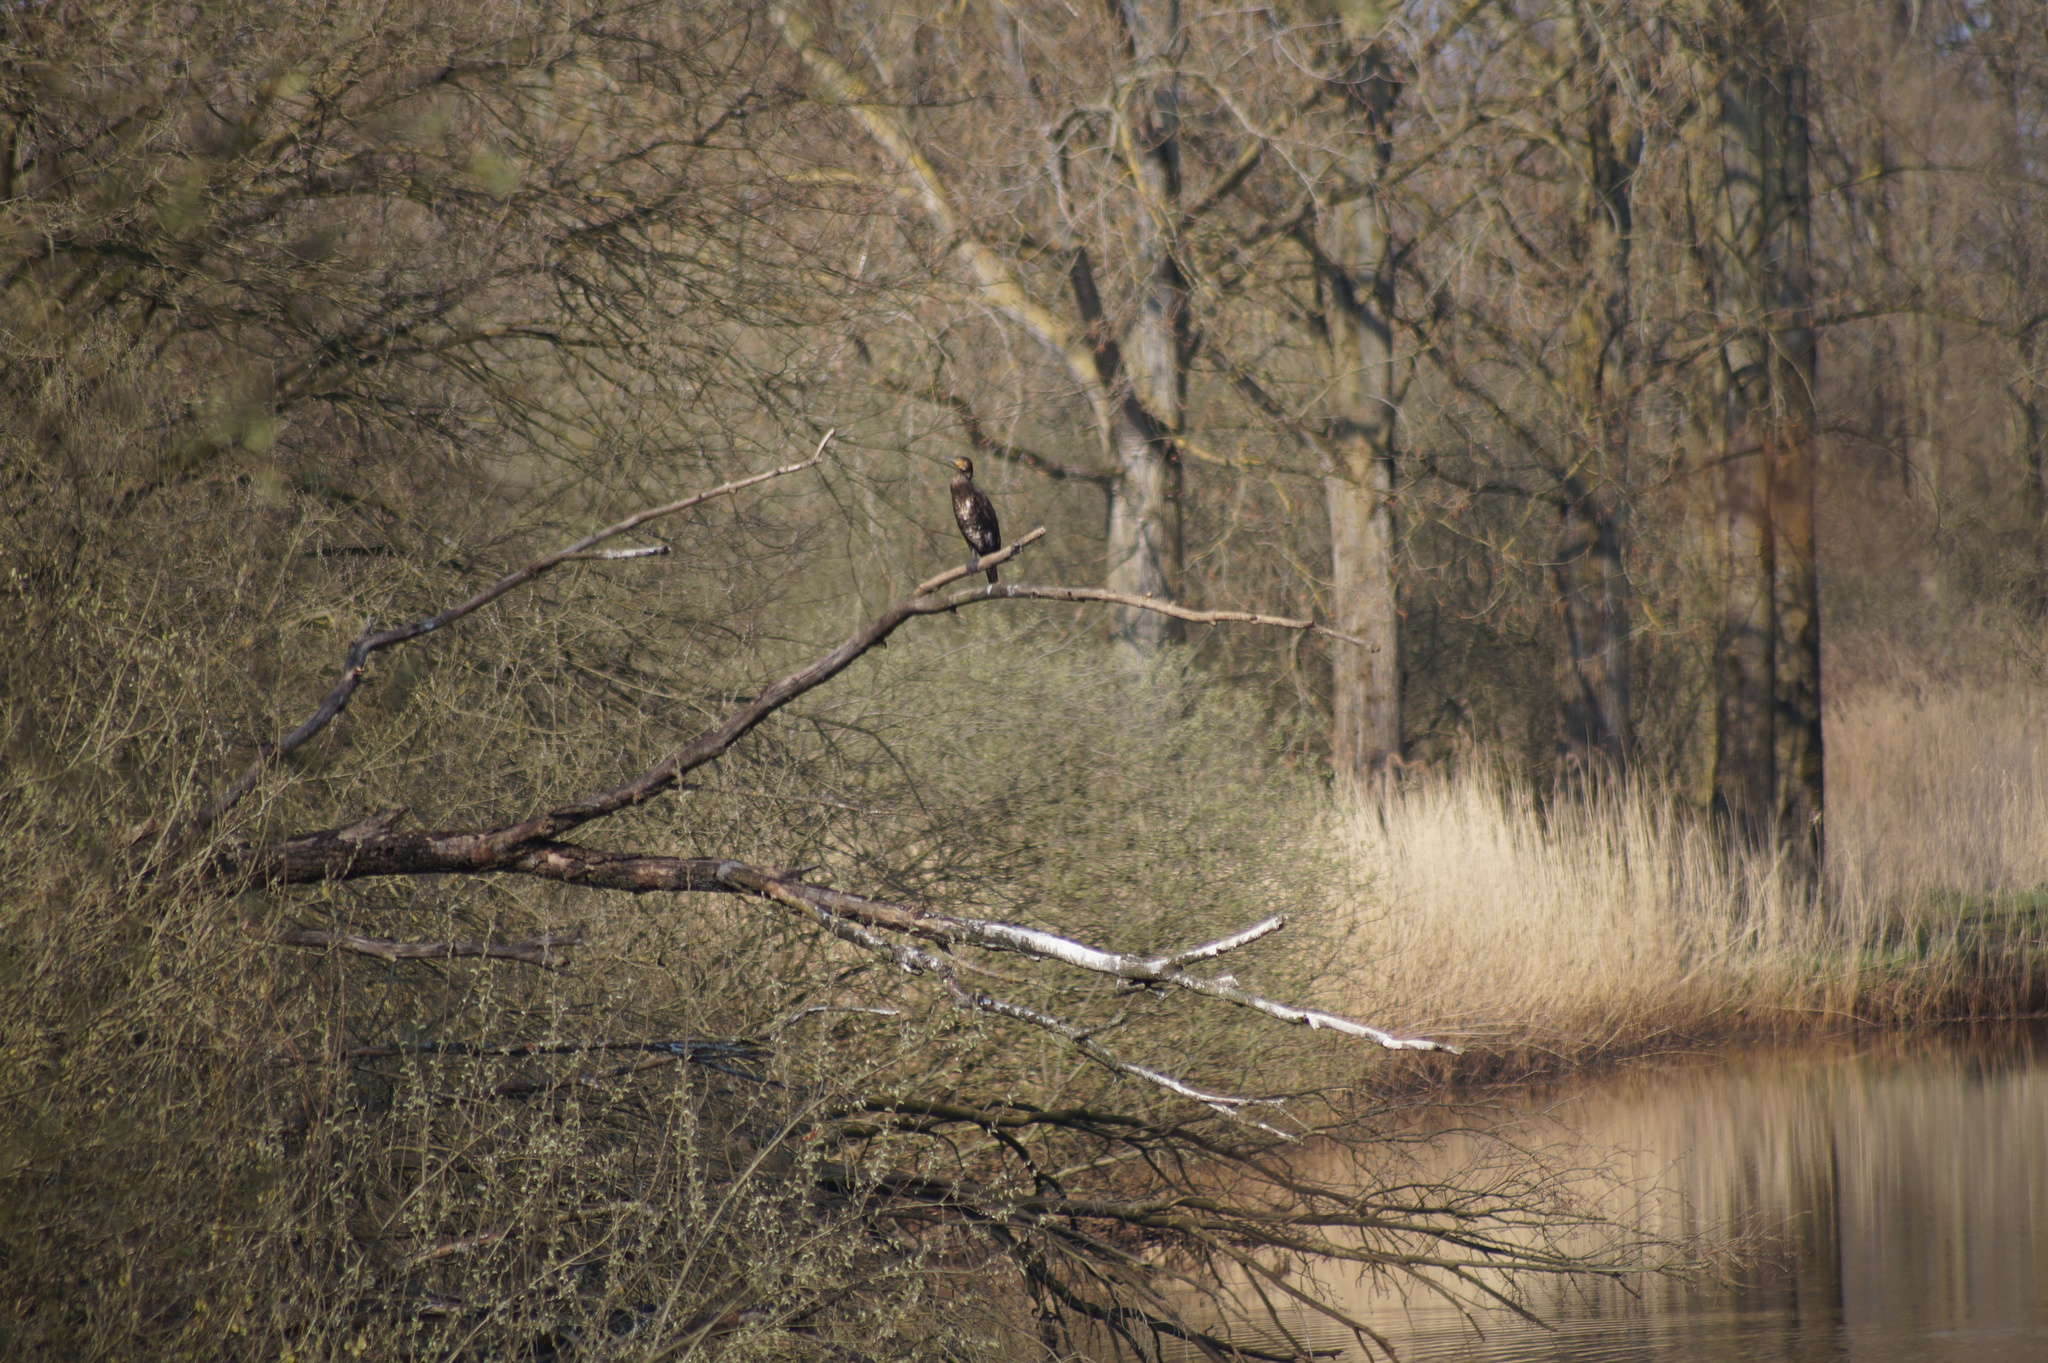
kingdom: Animalia
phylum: Chordata
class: Aves
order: Suliformes
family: Phalacrocoracidae
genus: Phalacrocorax
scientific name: Phalacrocorax carbo
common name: Great cormorant
